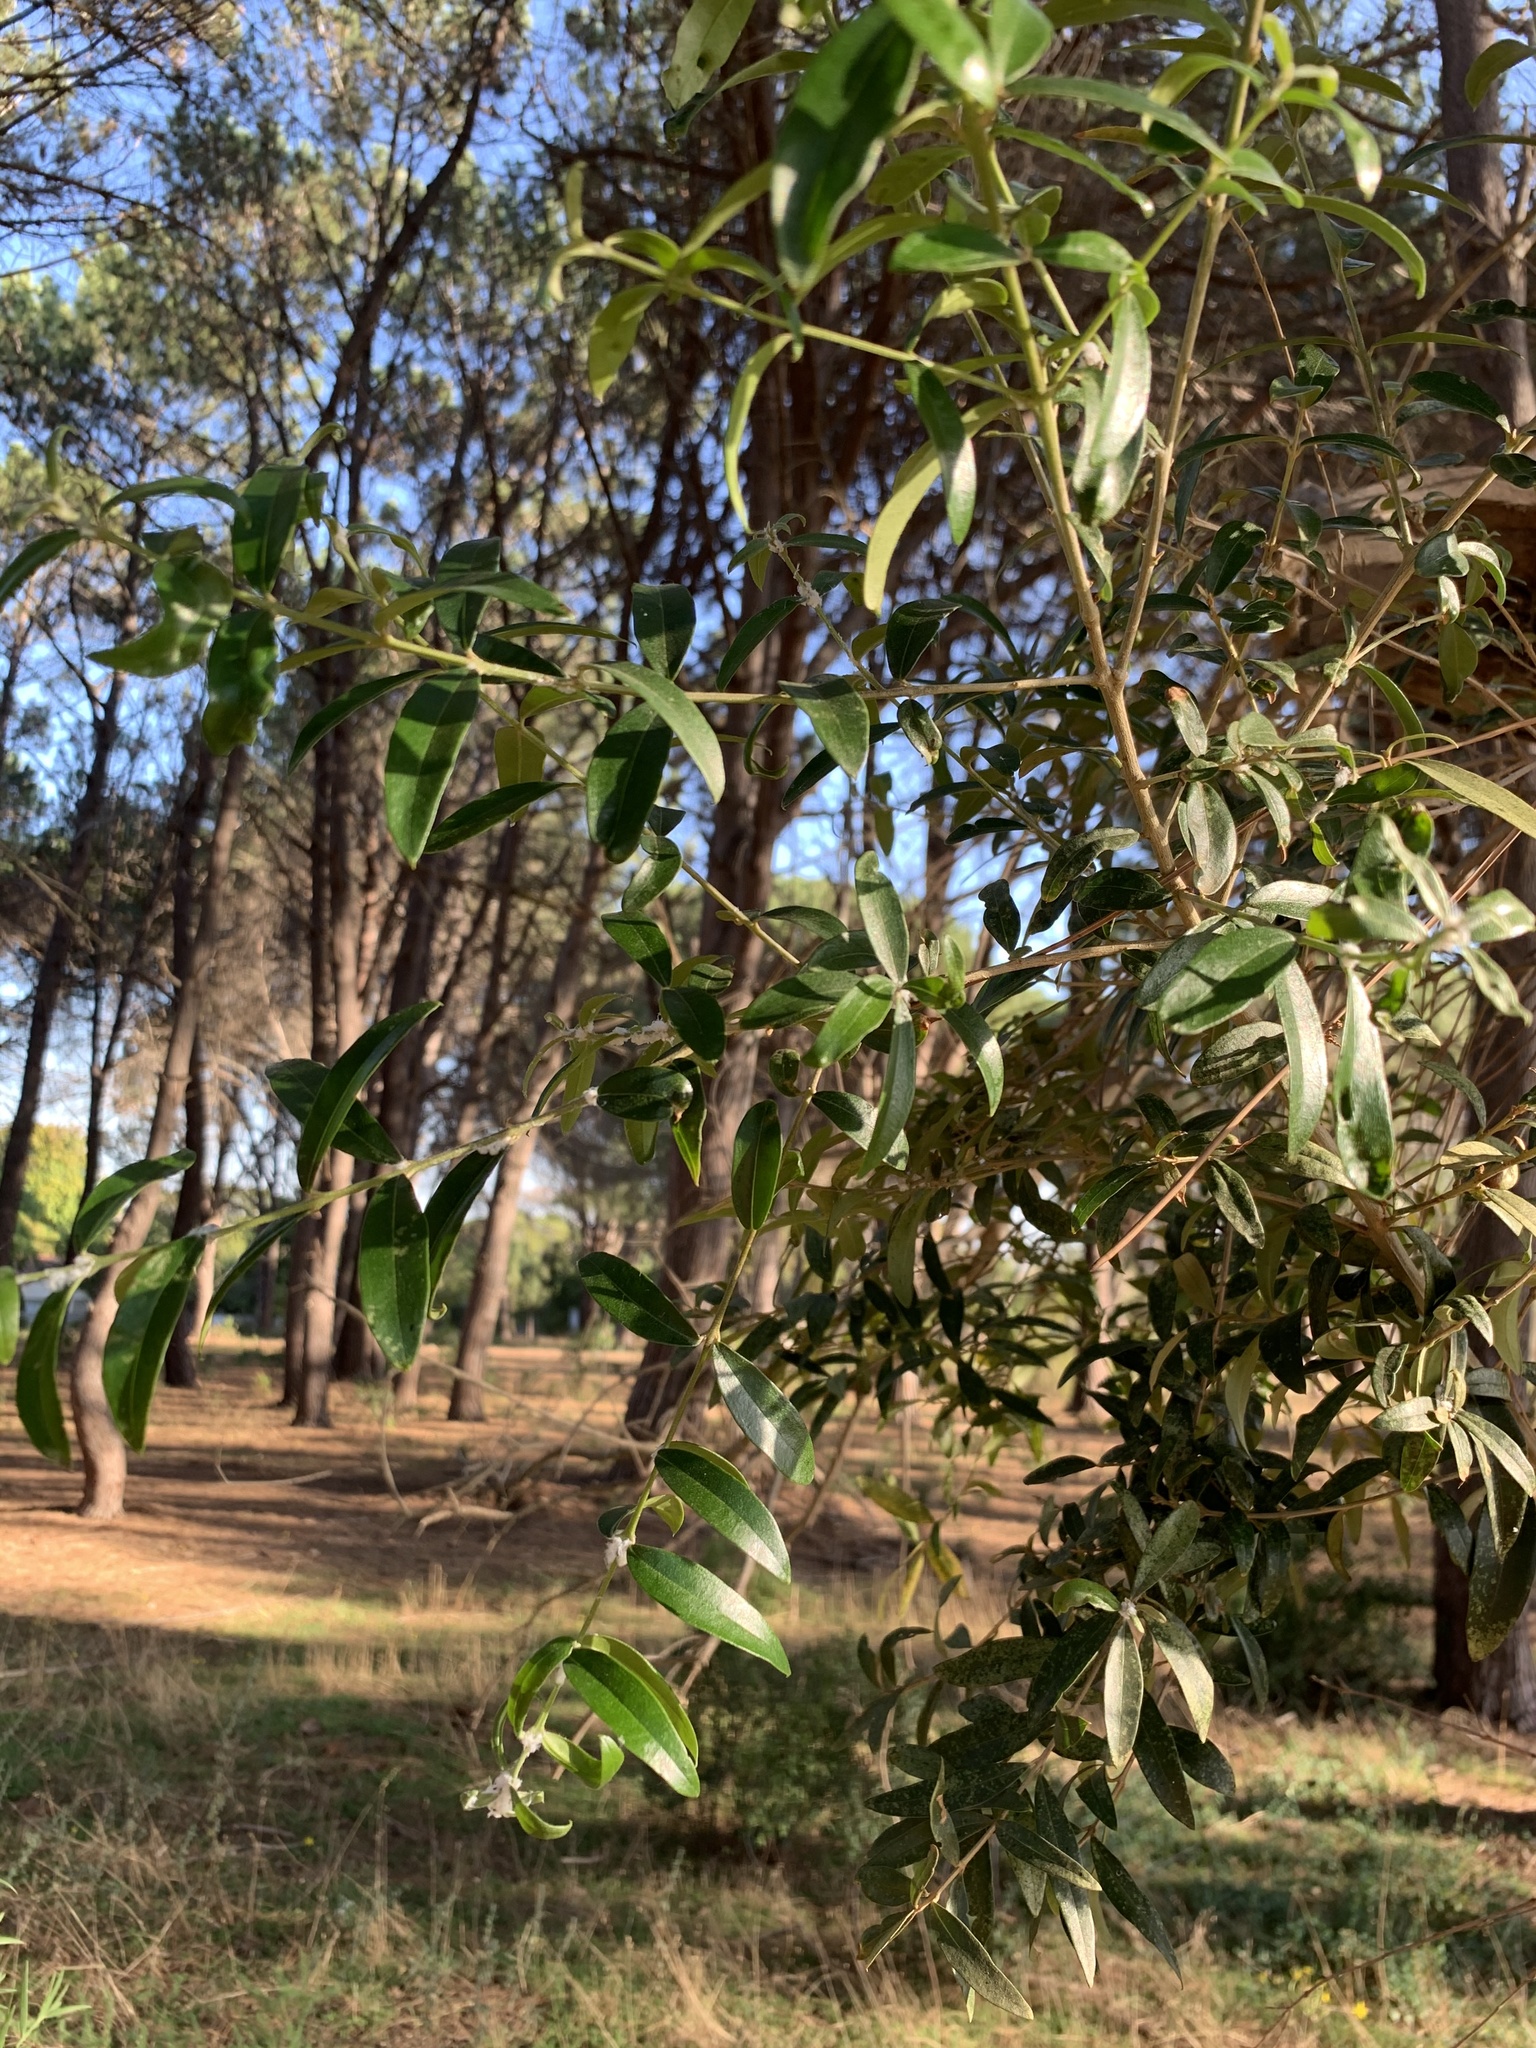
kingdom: Plantae
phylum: Tracheophyta
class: Magnoliopsida
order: Lamiales
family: Oleaceae
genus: Olea
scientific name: Olea europaea
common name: Olive
